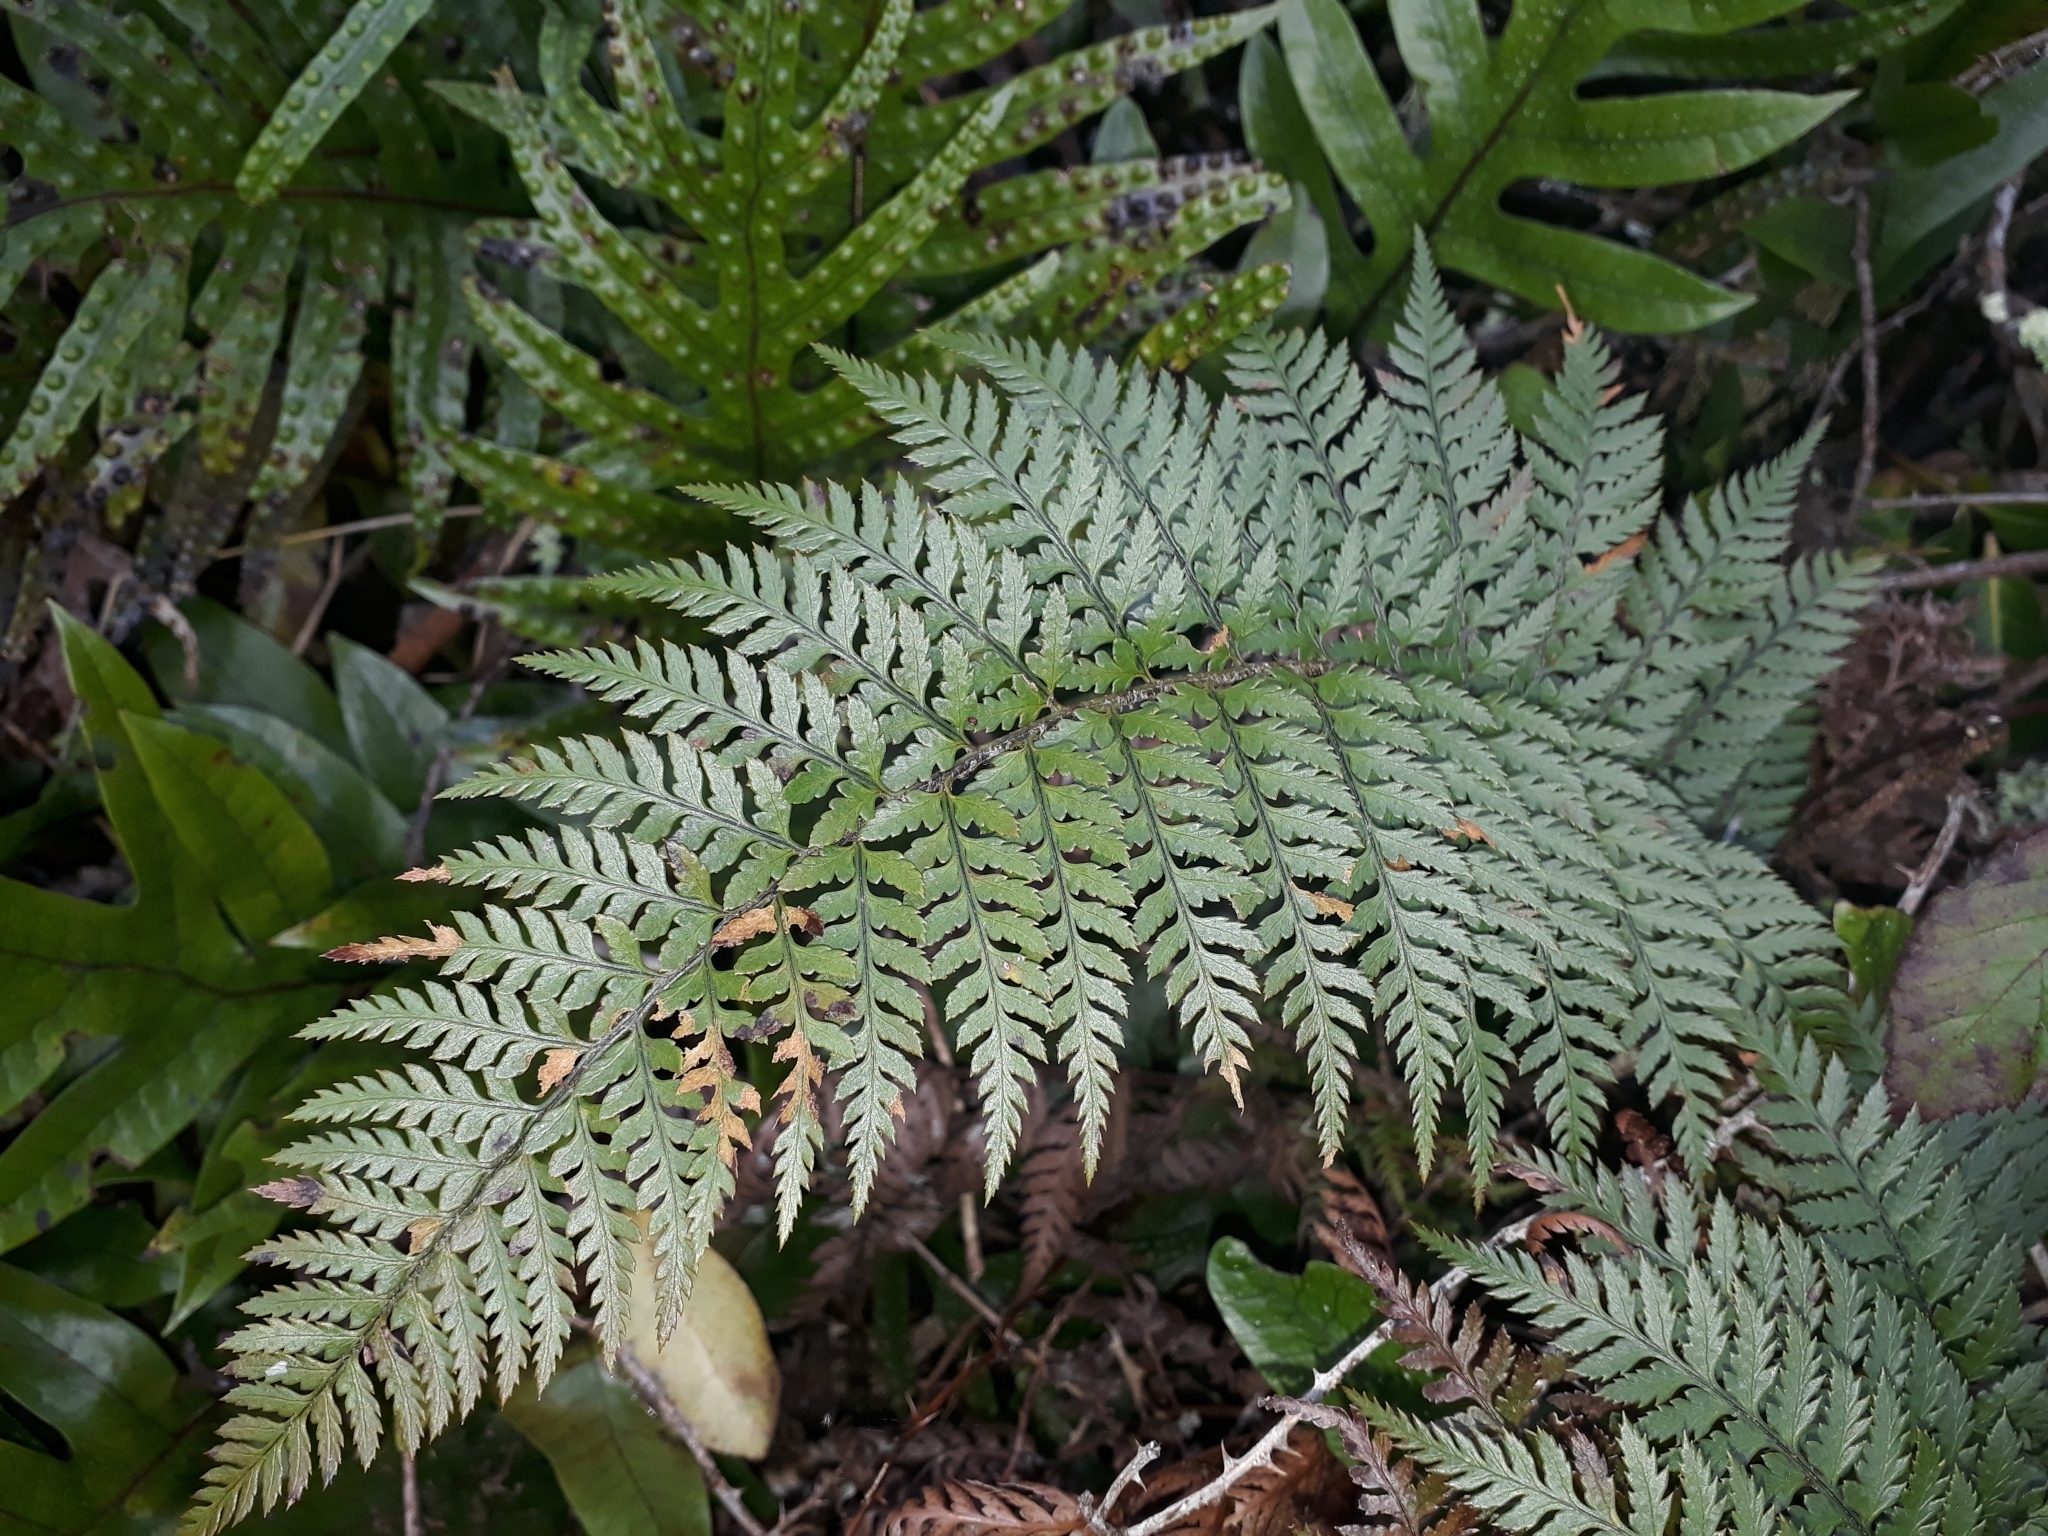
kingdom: Plantae
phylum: Tracheophyta
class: Polypodiopsida
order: Polypodiales
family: Dryopteridaceae
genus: Polystichum
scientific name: Polystichum neozelandicum
